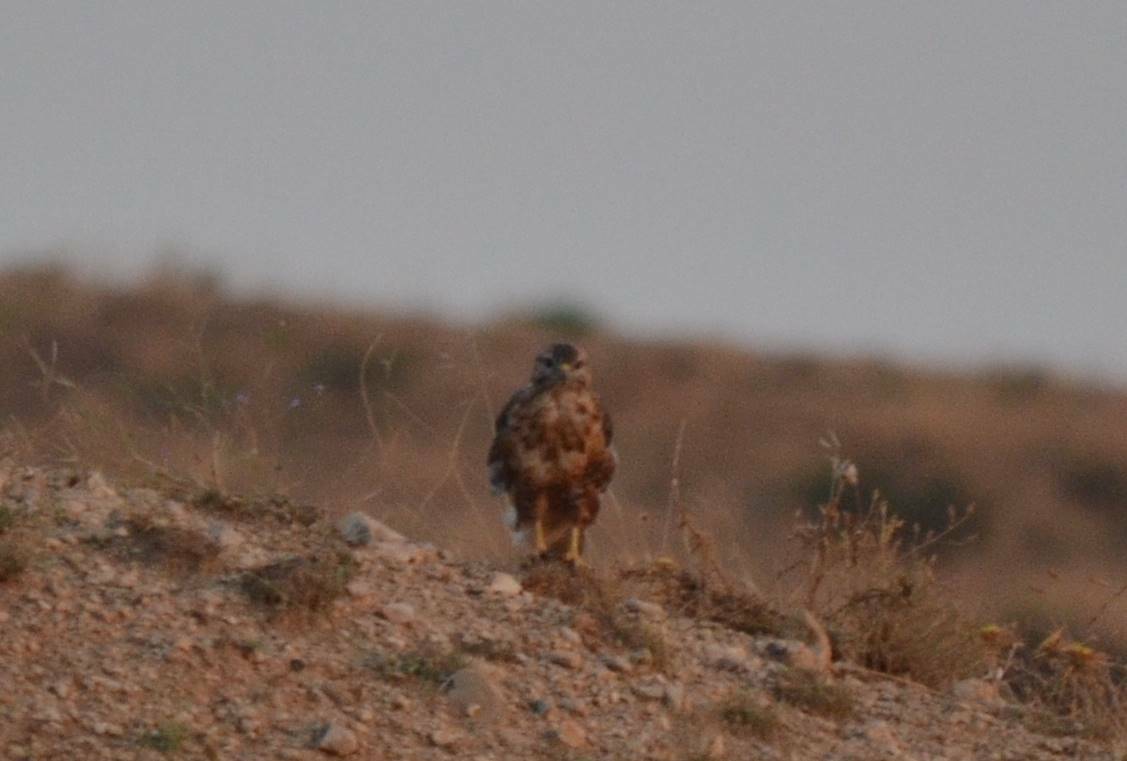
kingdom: Animalia
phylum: Chordata
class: Aves
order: Accipitriformes
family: Accipitridae
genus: Buteo
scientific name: Buteo rufinus
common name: Long-legged buzzard
